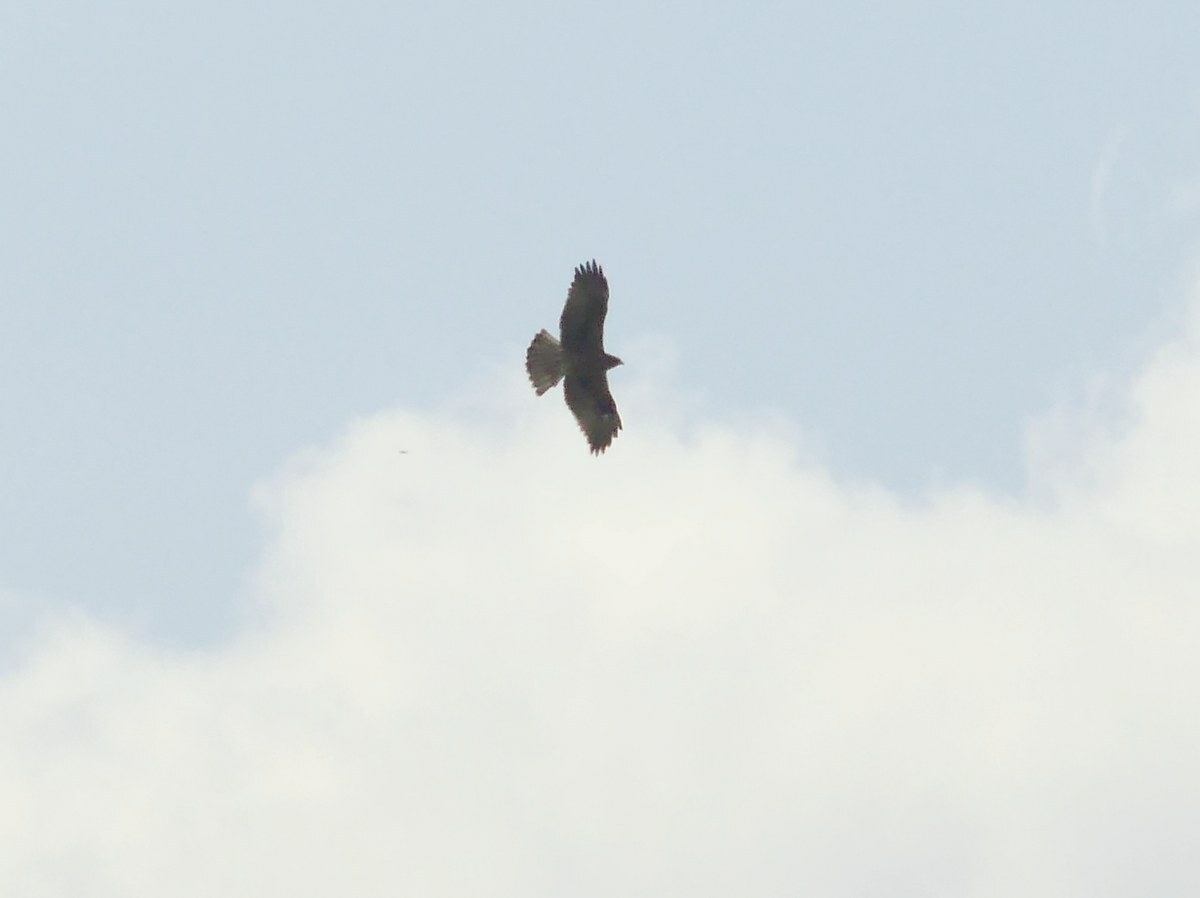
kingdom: Animalia
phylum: Chordata
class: Aves
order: Accipitriformes
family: Accipitridae
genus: Buteo
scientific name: Buteo buteo
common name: Common buzzard
